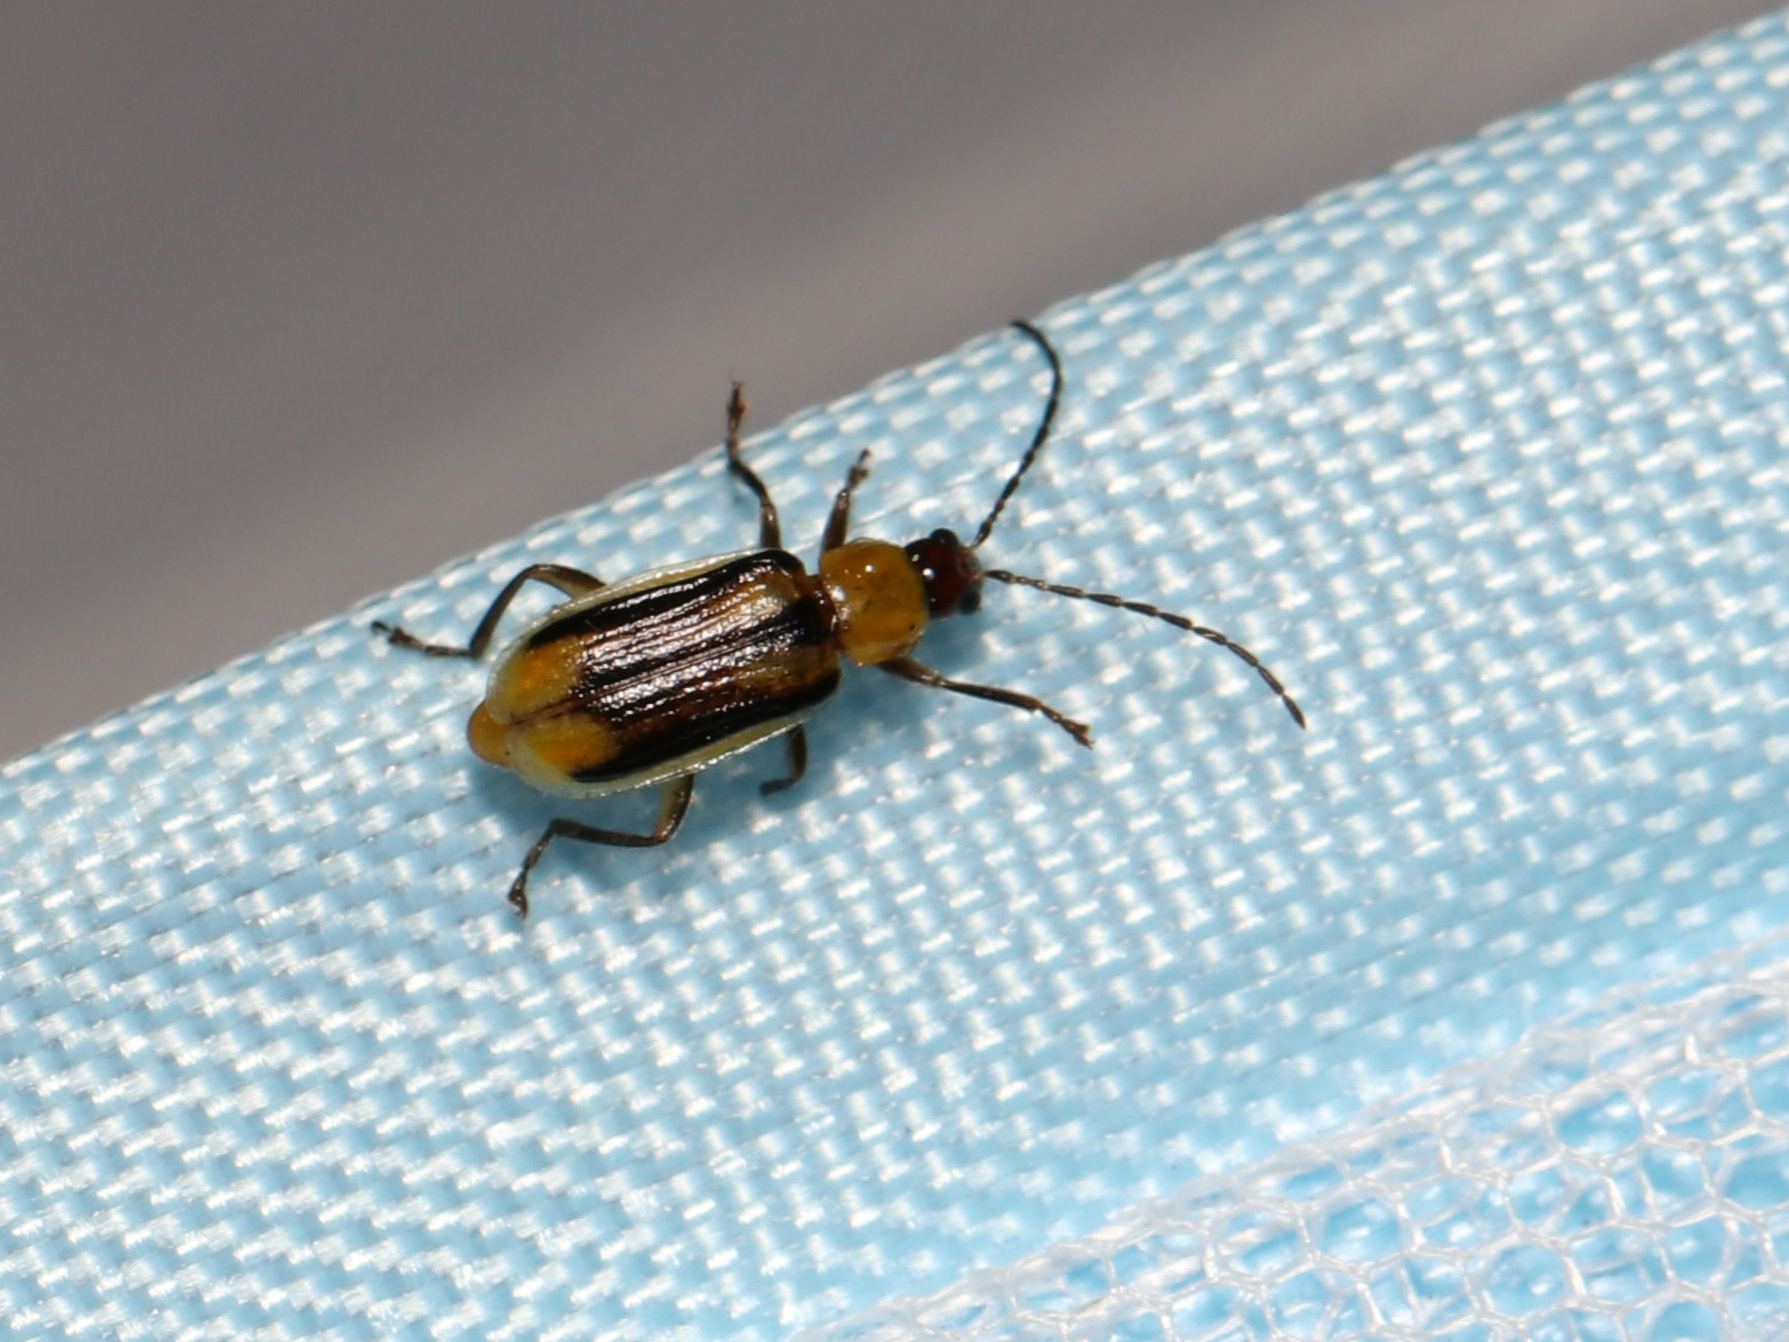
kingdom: Animalia
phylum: Arthropoda
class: Insecta
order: Coleoptera
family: Chrysomelidae
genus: Diabrotica
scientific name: Diabrotica virgifera
